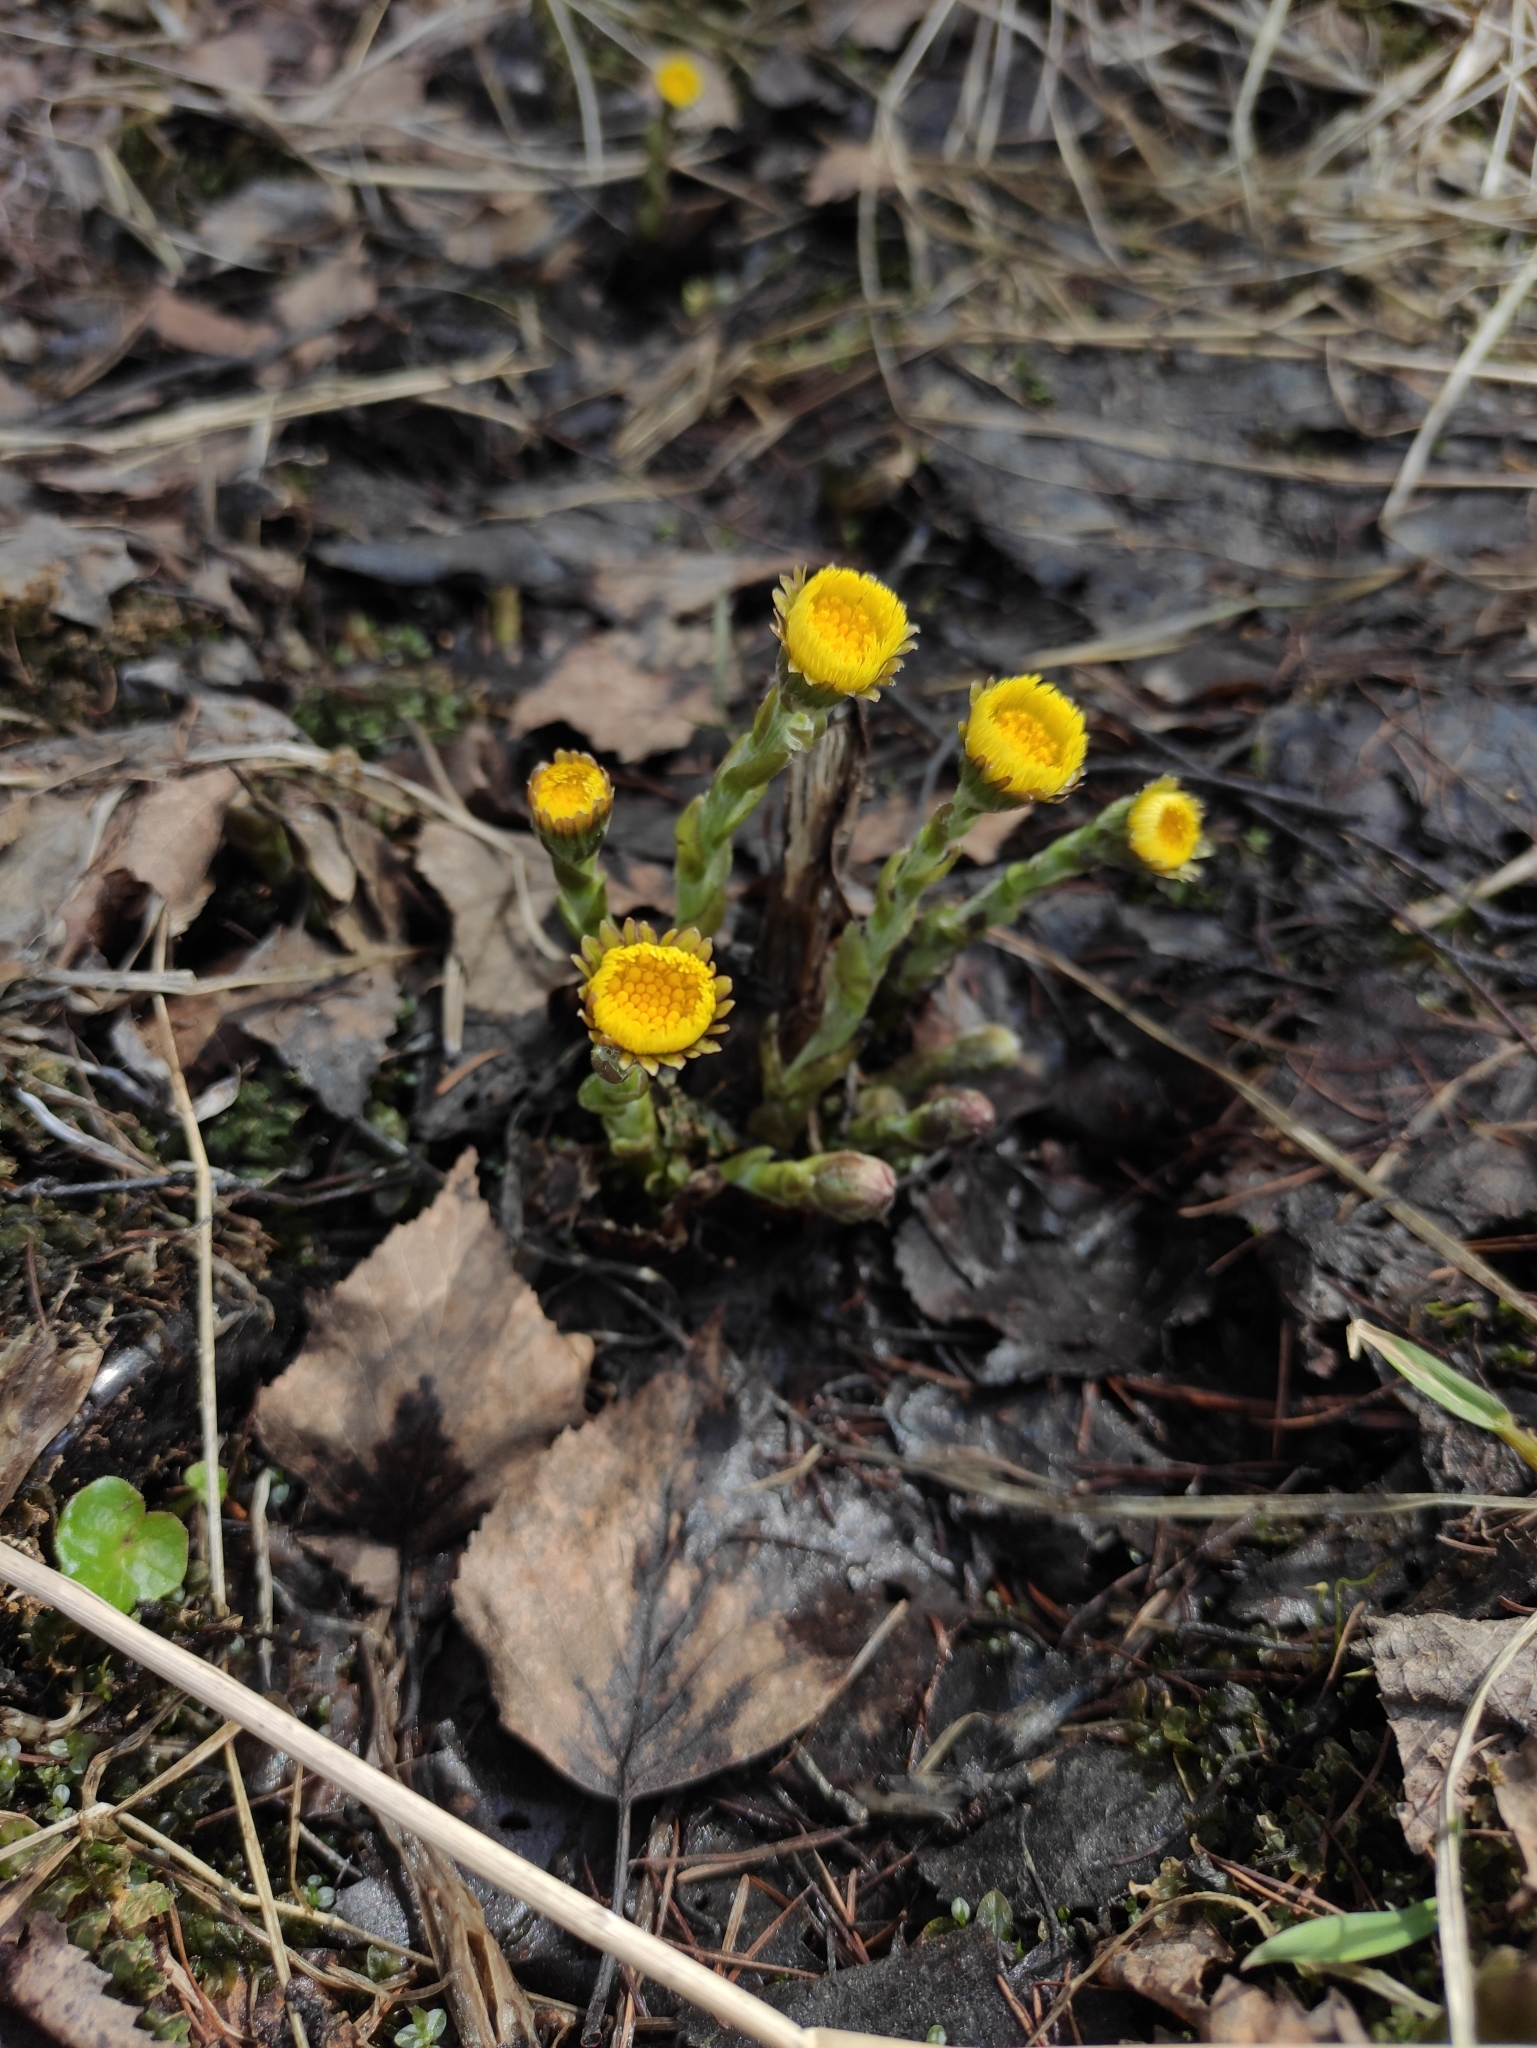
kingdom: Plantae
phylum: Tracheophyta
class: Magnoliopsida
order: Asterales
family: Asteraceae
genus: Tussilago
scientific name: Tussilago farfara
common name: Coltsfoot
